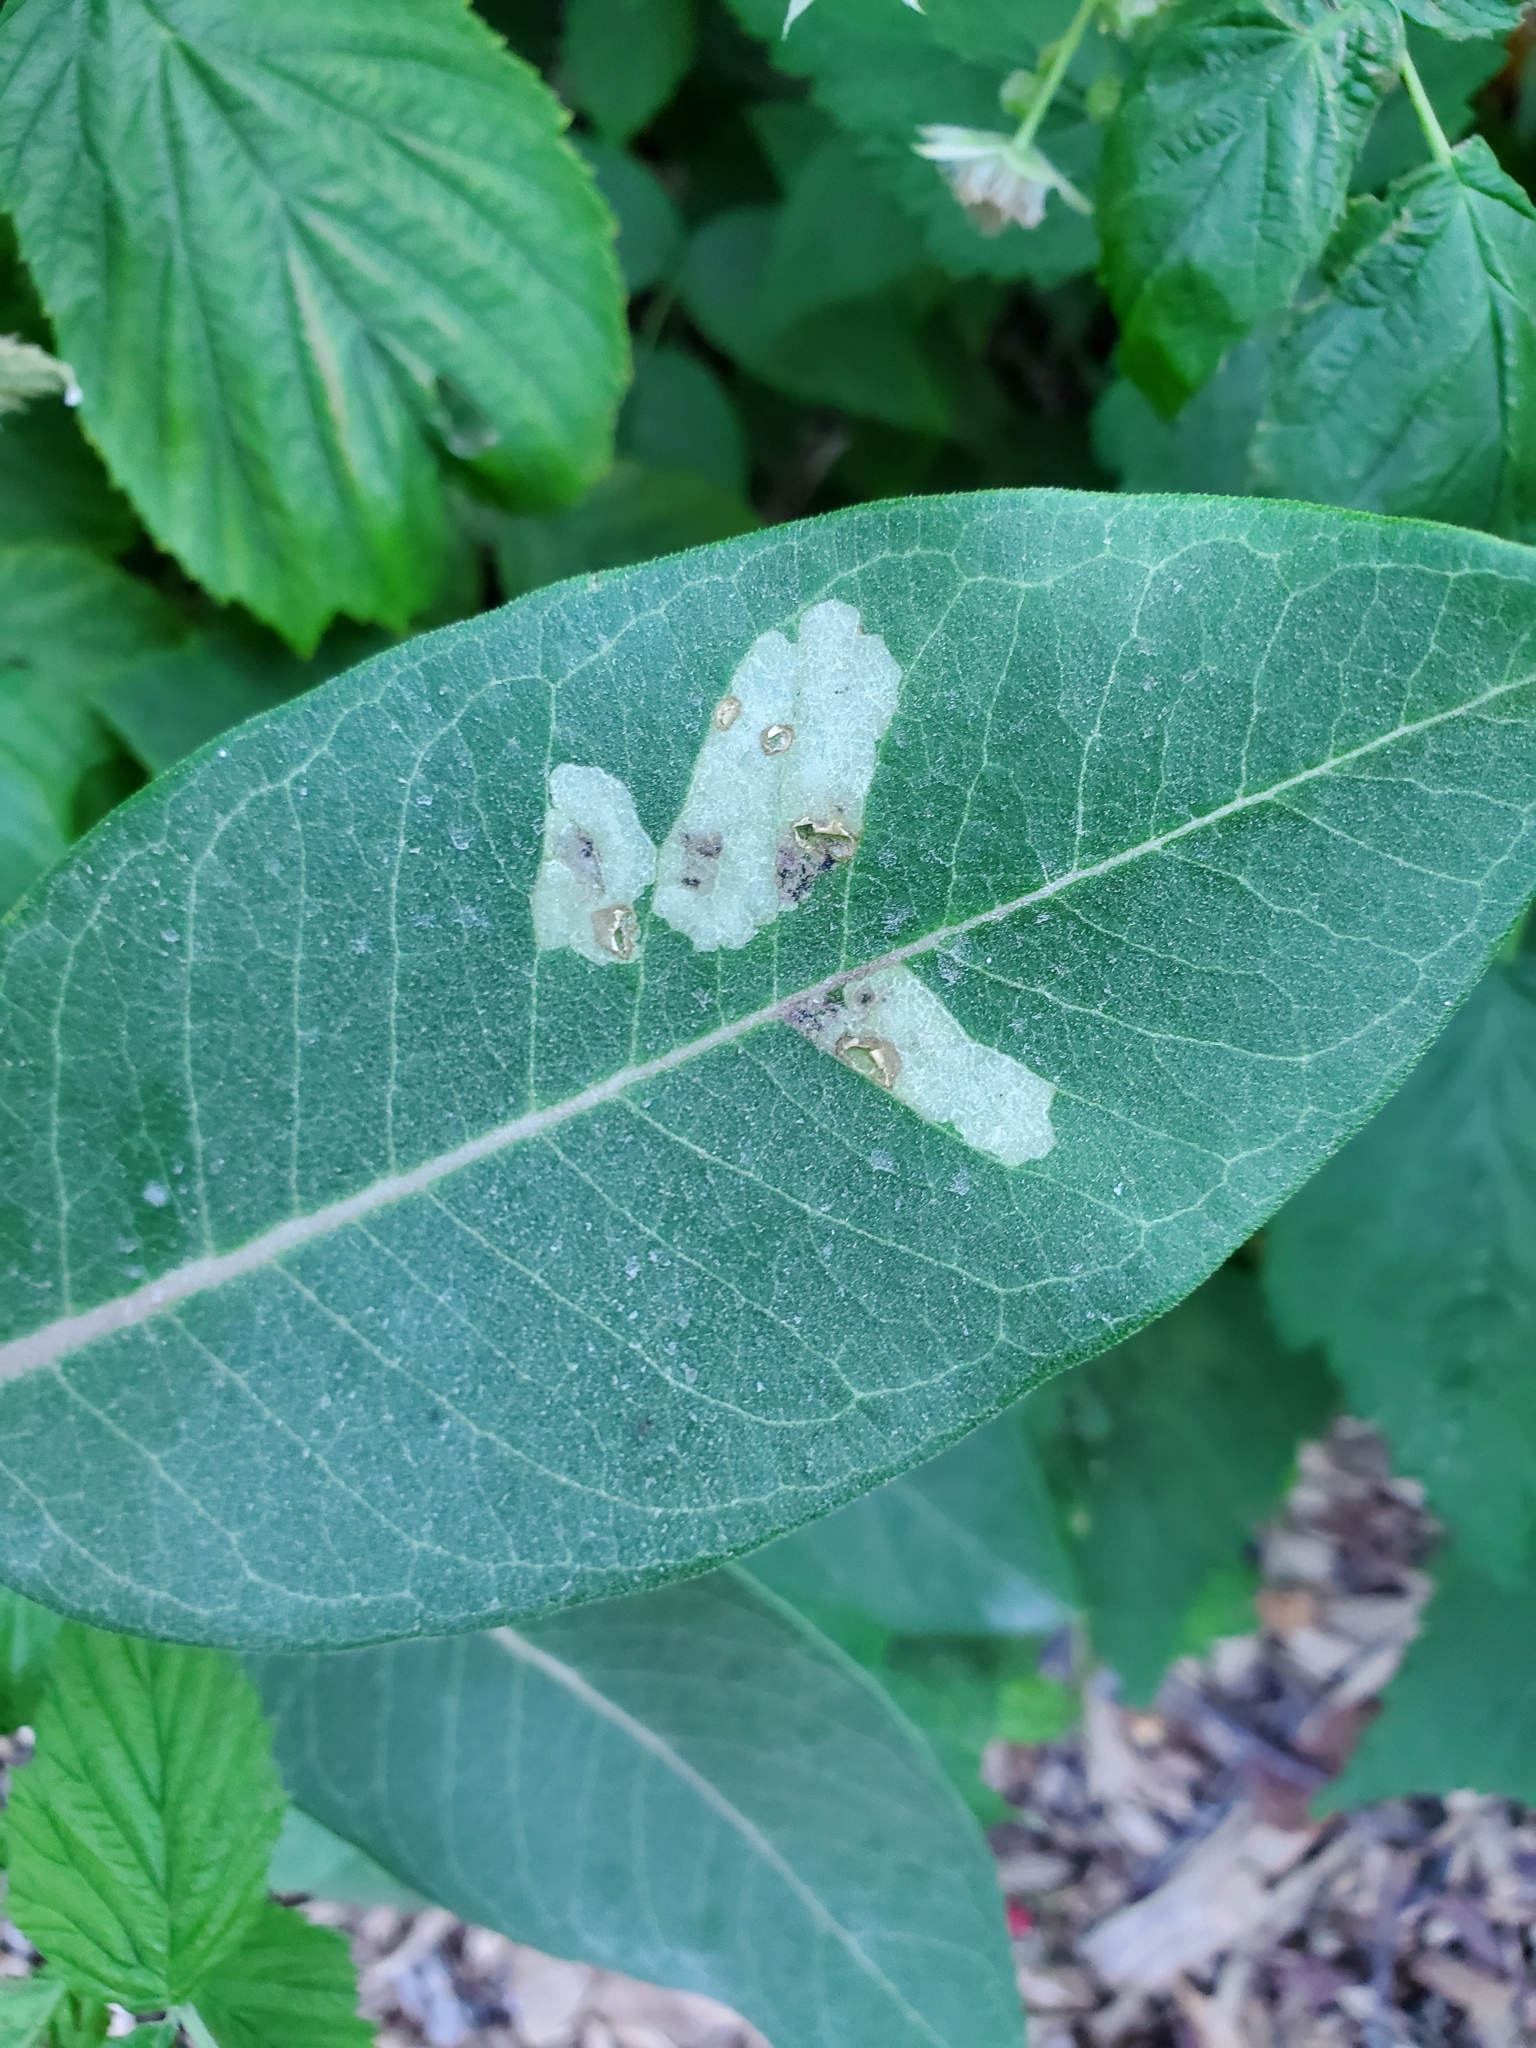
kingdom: Animalia
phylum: Arthropoda
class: Insecta
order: Diptera
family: Agromyzidae
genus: Liriomyza
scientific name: Liriomyza asclepiadis
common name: Milkweed leaf-miner fly
